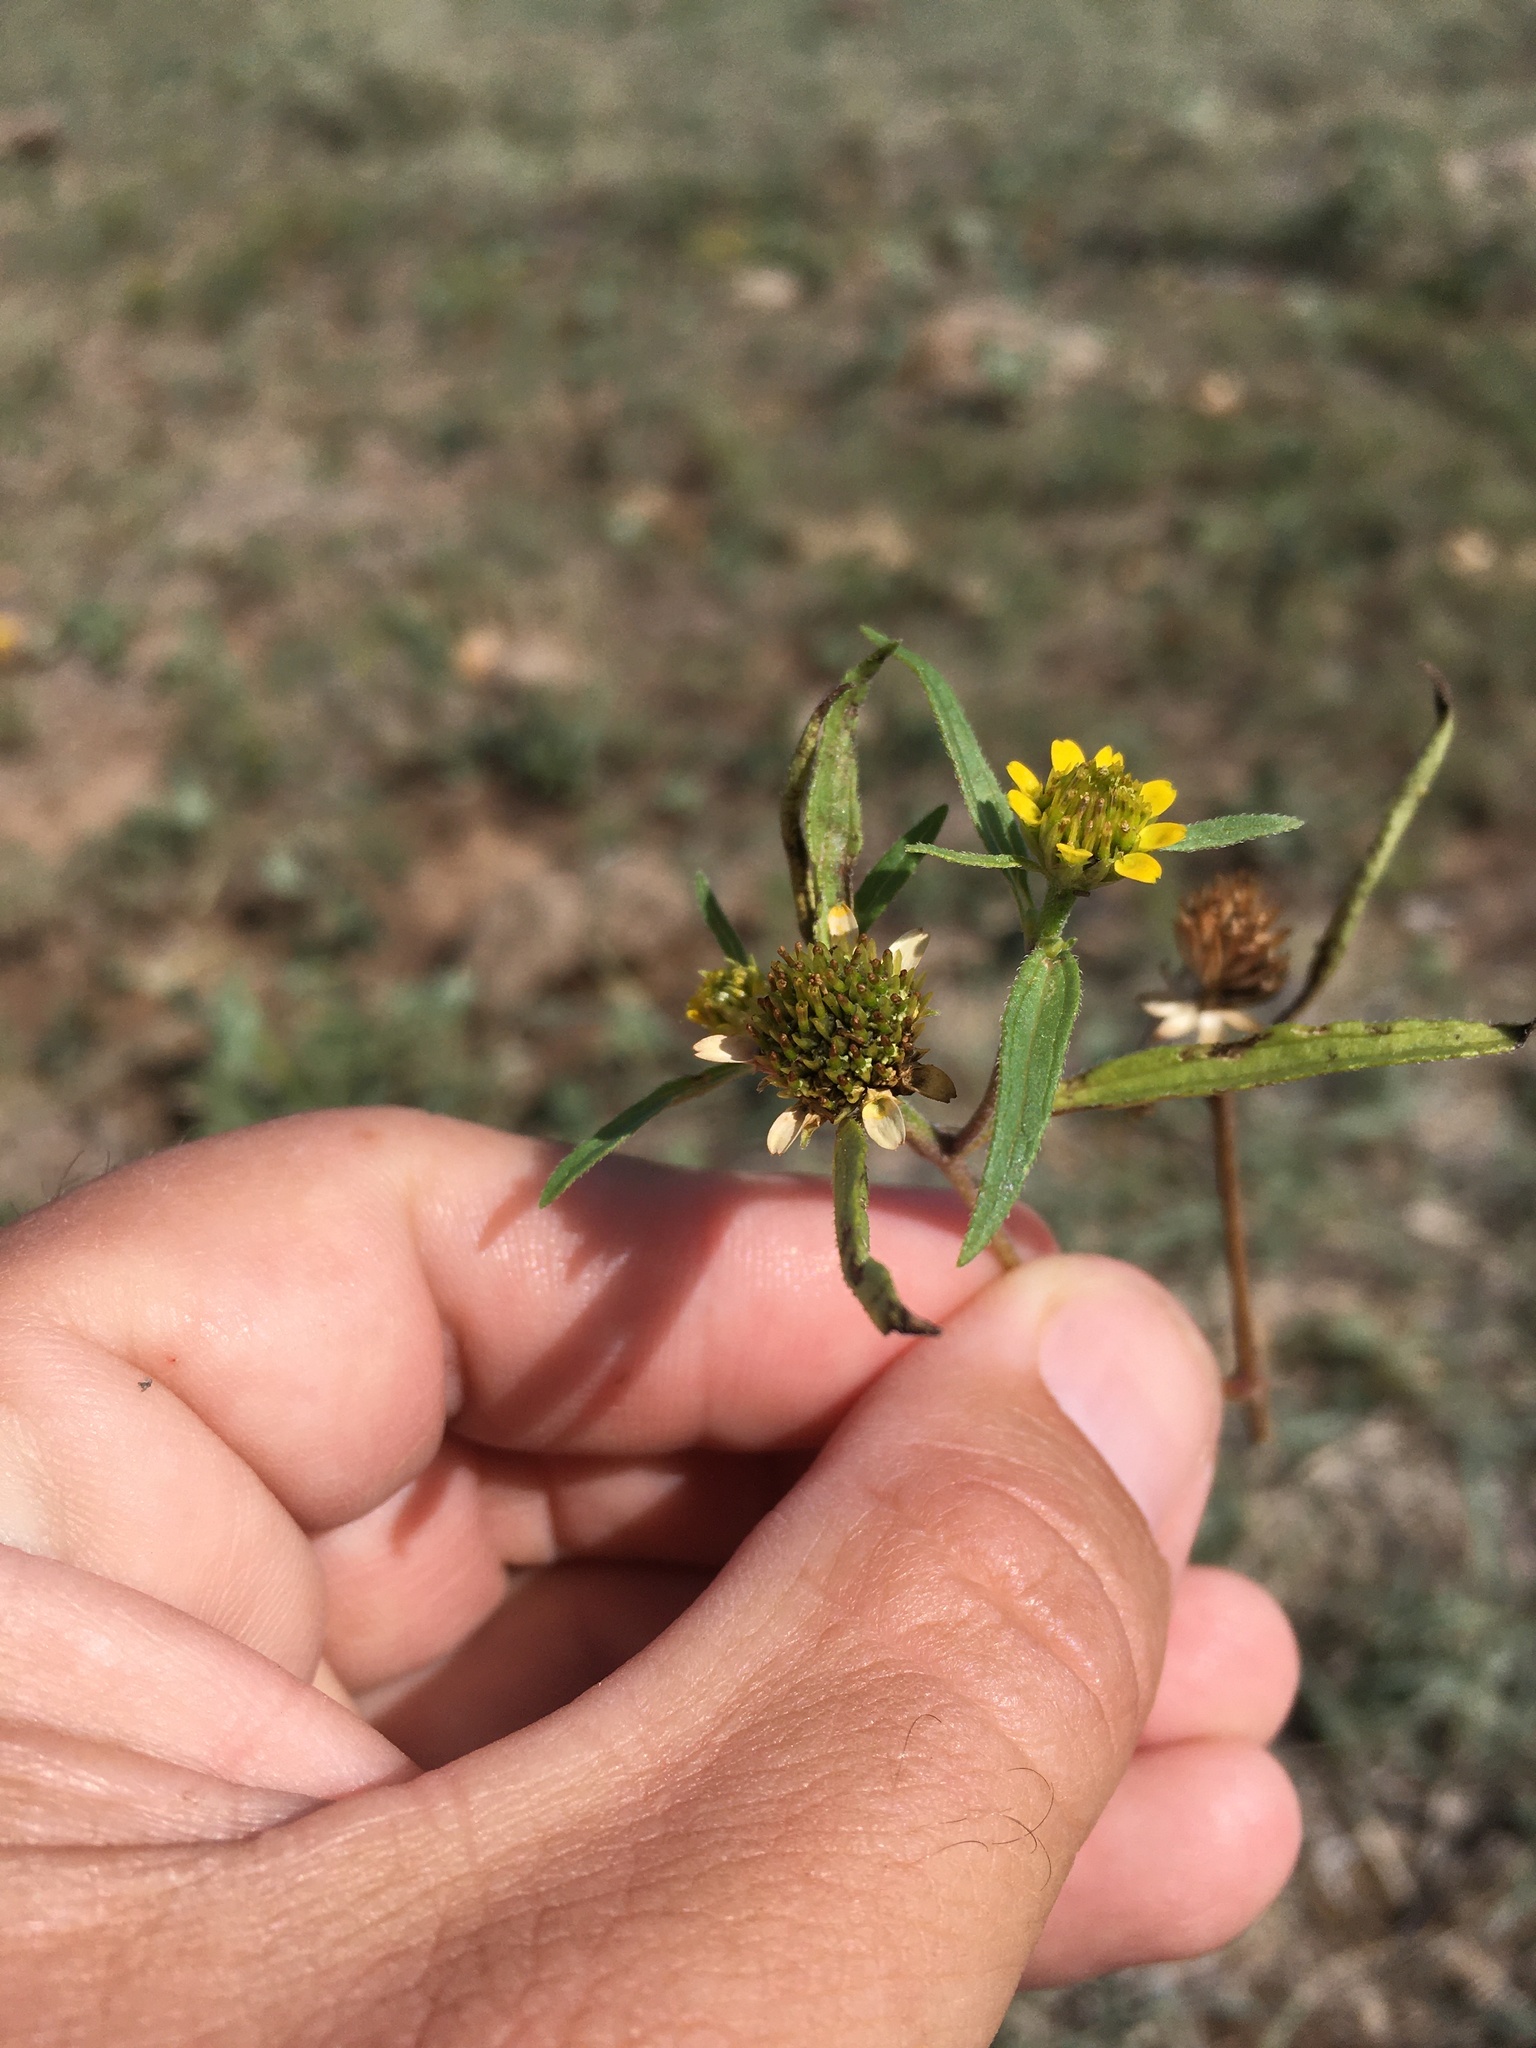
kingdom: Plantae
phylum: Tracheophyta
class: Magnoliopsida
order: Asterales
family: Asteraceae
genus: Sanvitalia
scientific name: Sanvitalia abertii
